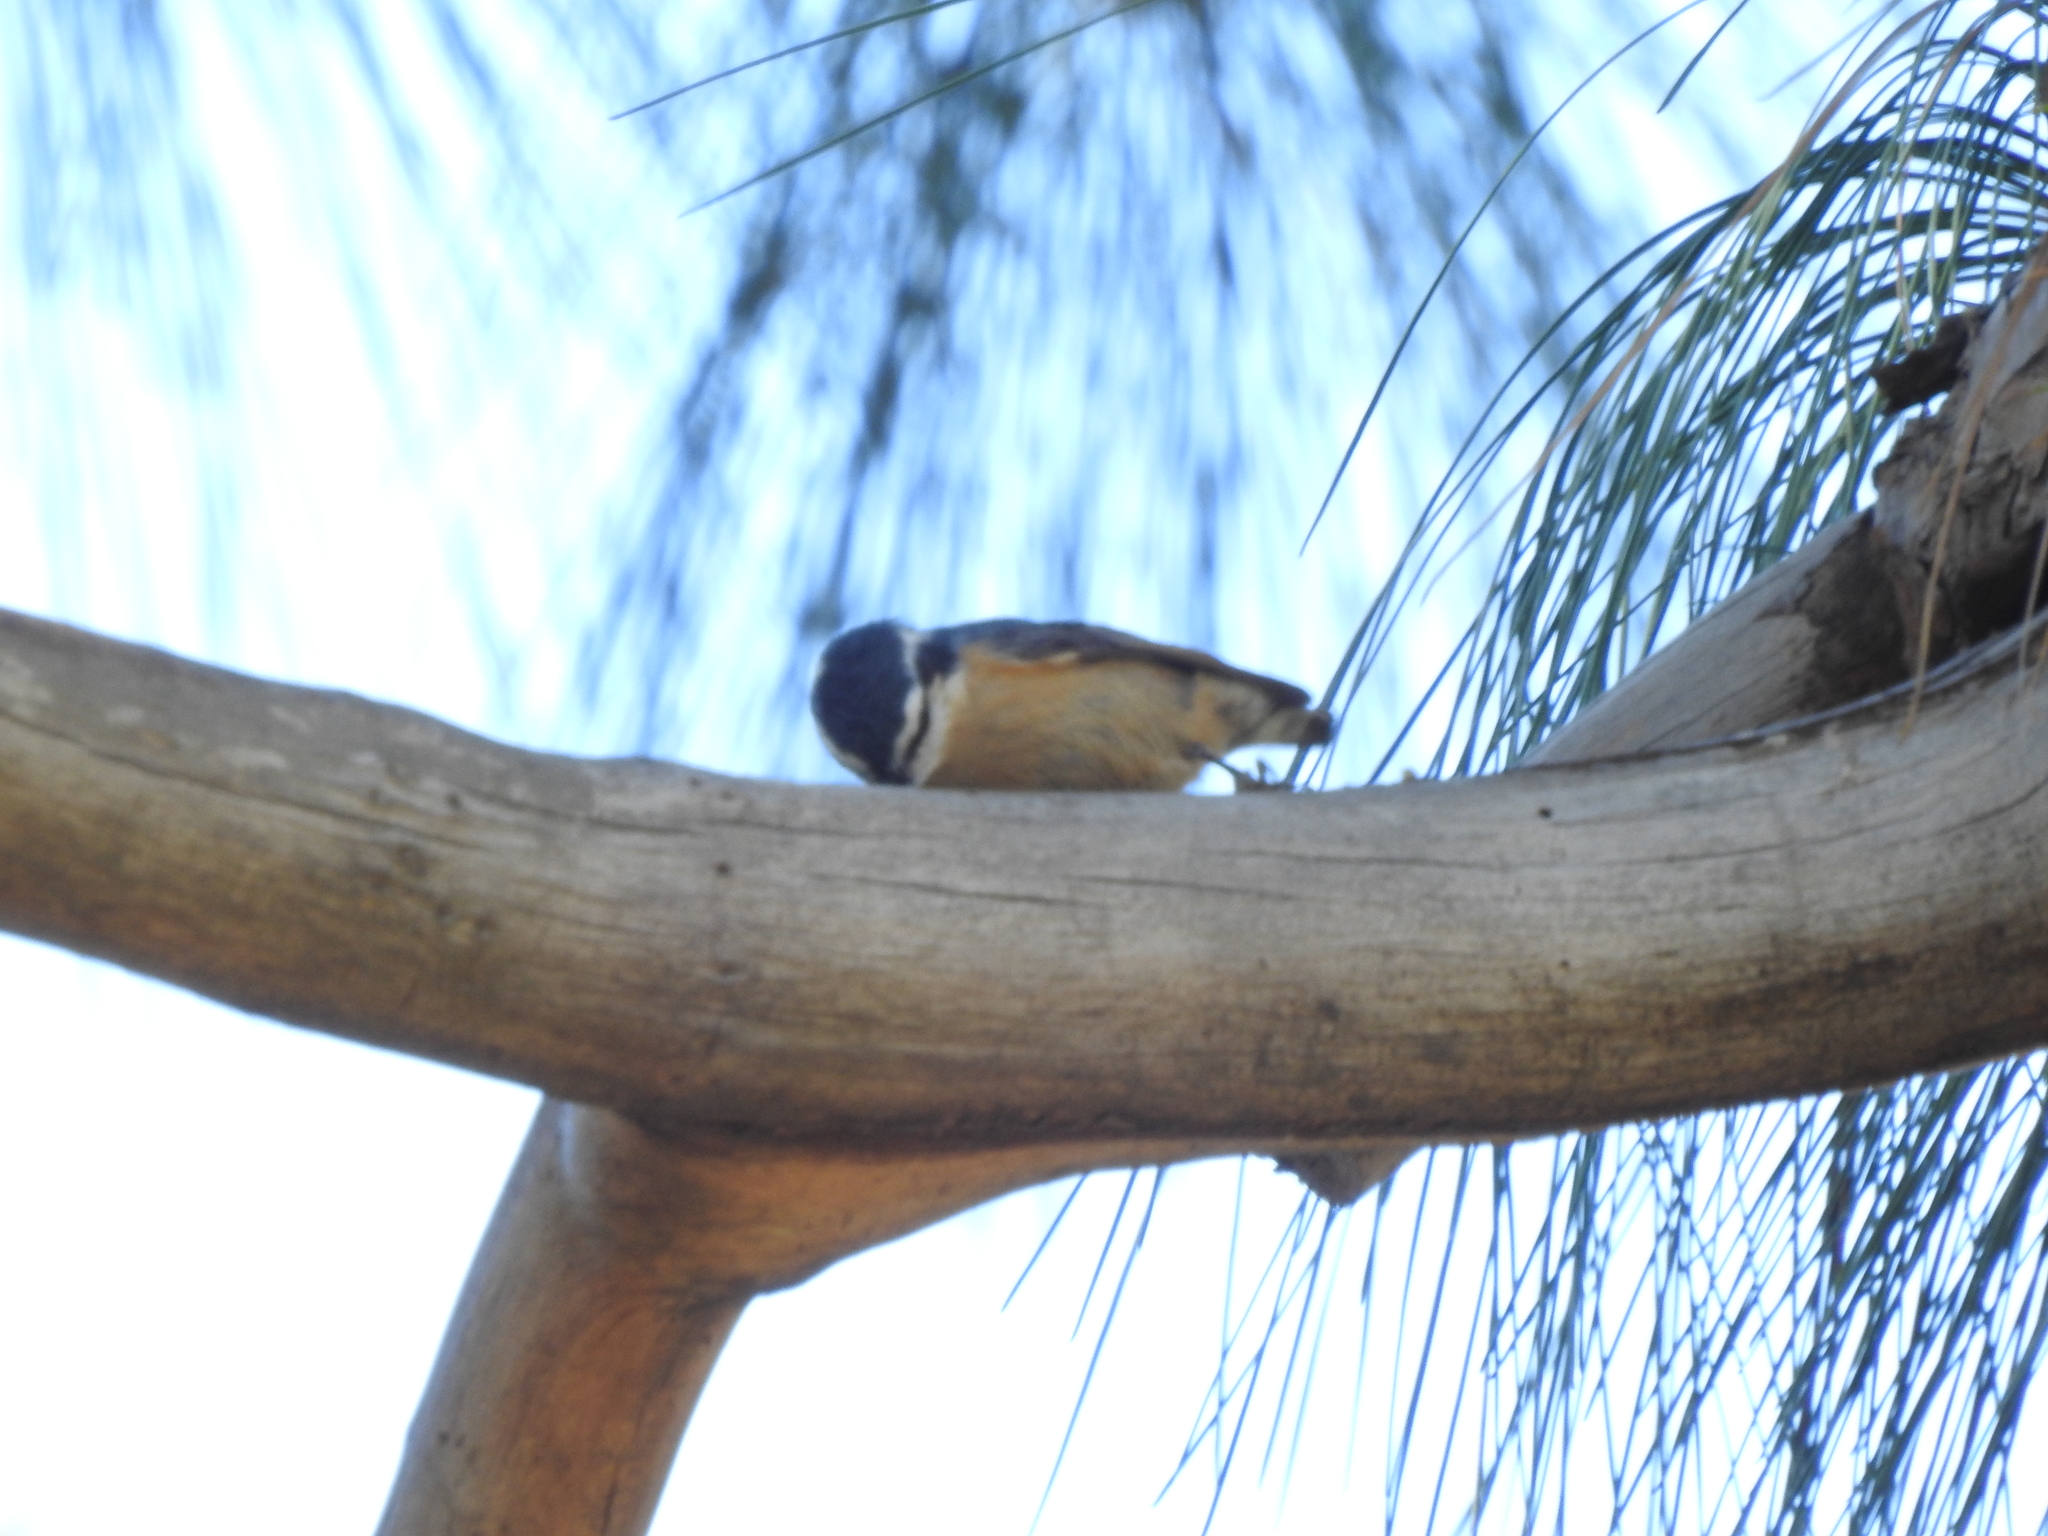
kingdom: Animalia
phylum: Chordata
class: Aves
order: Passeriformes
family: Sittidae
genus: Sitta
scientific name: Sitta canadensis
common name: Red-breasted nuthatch
